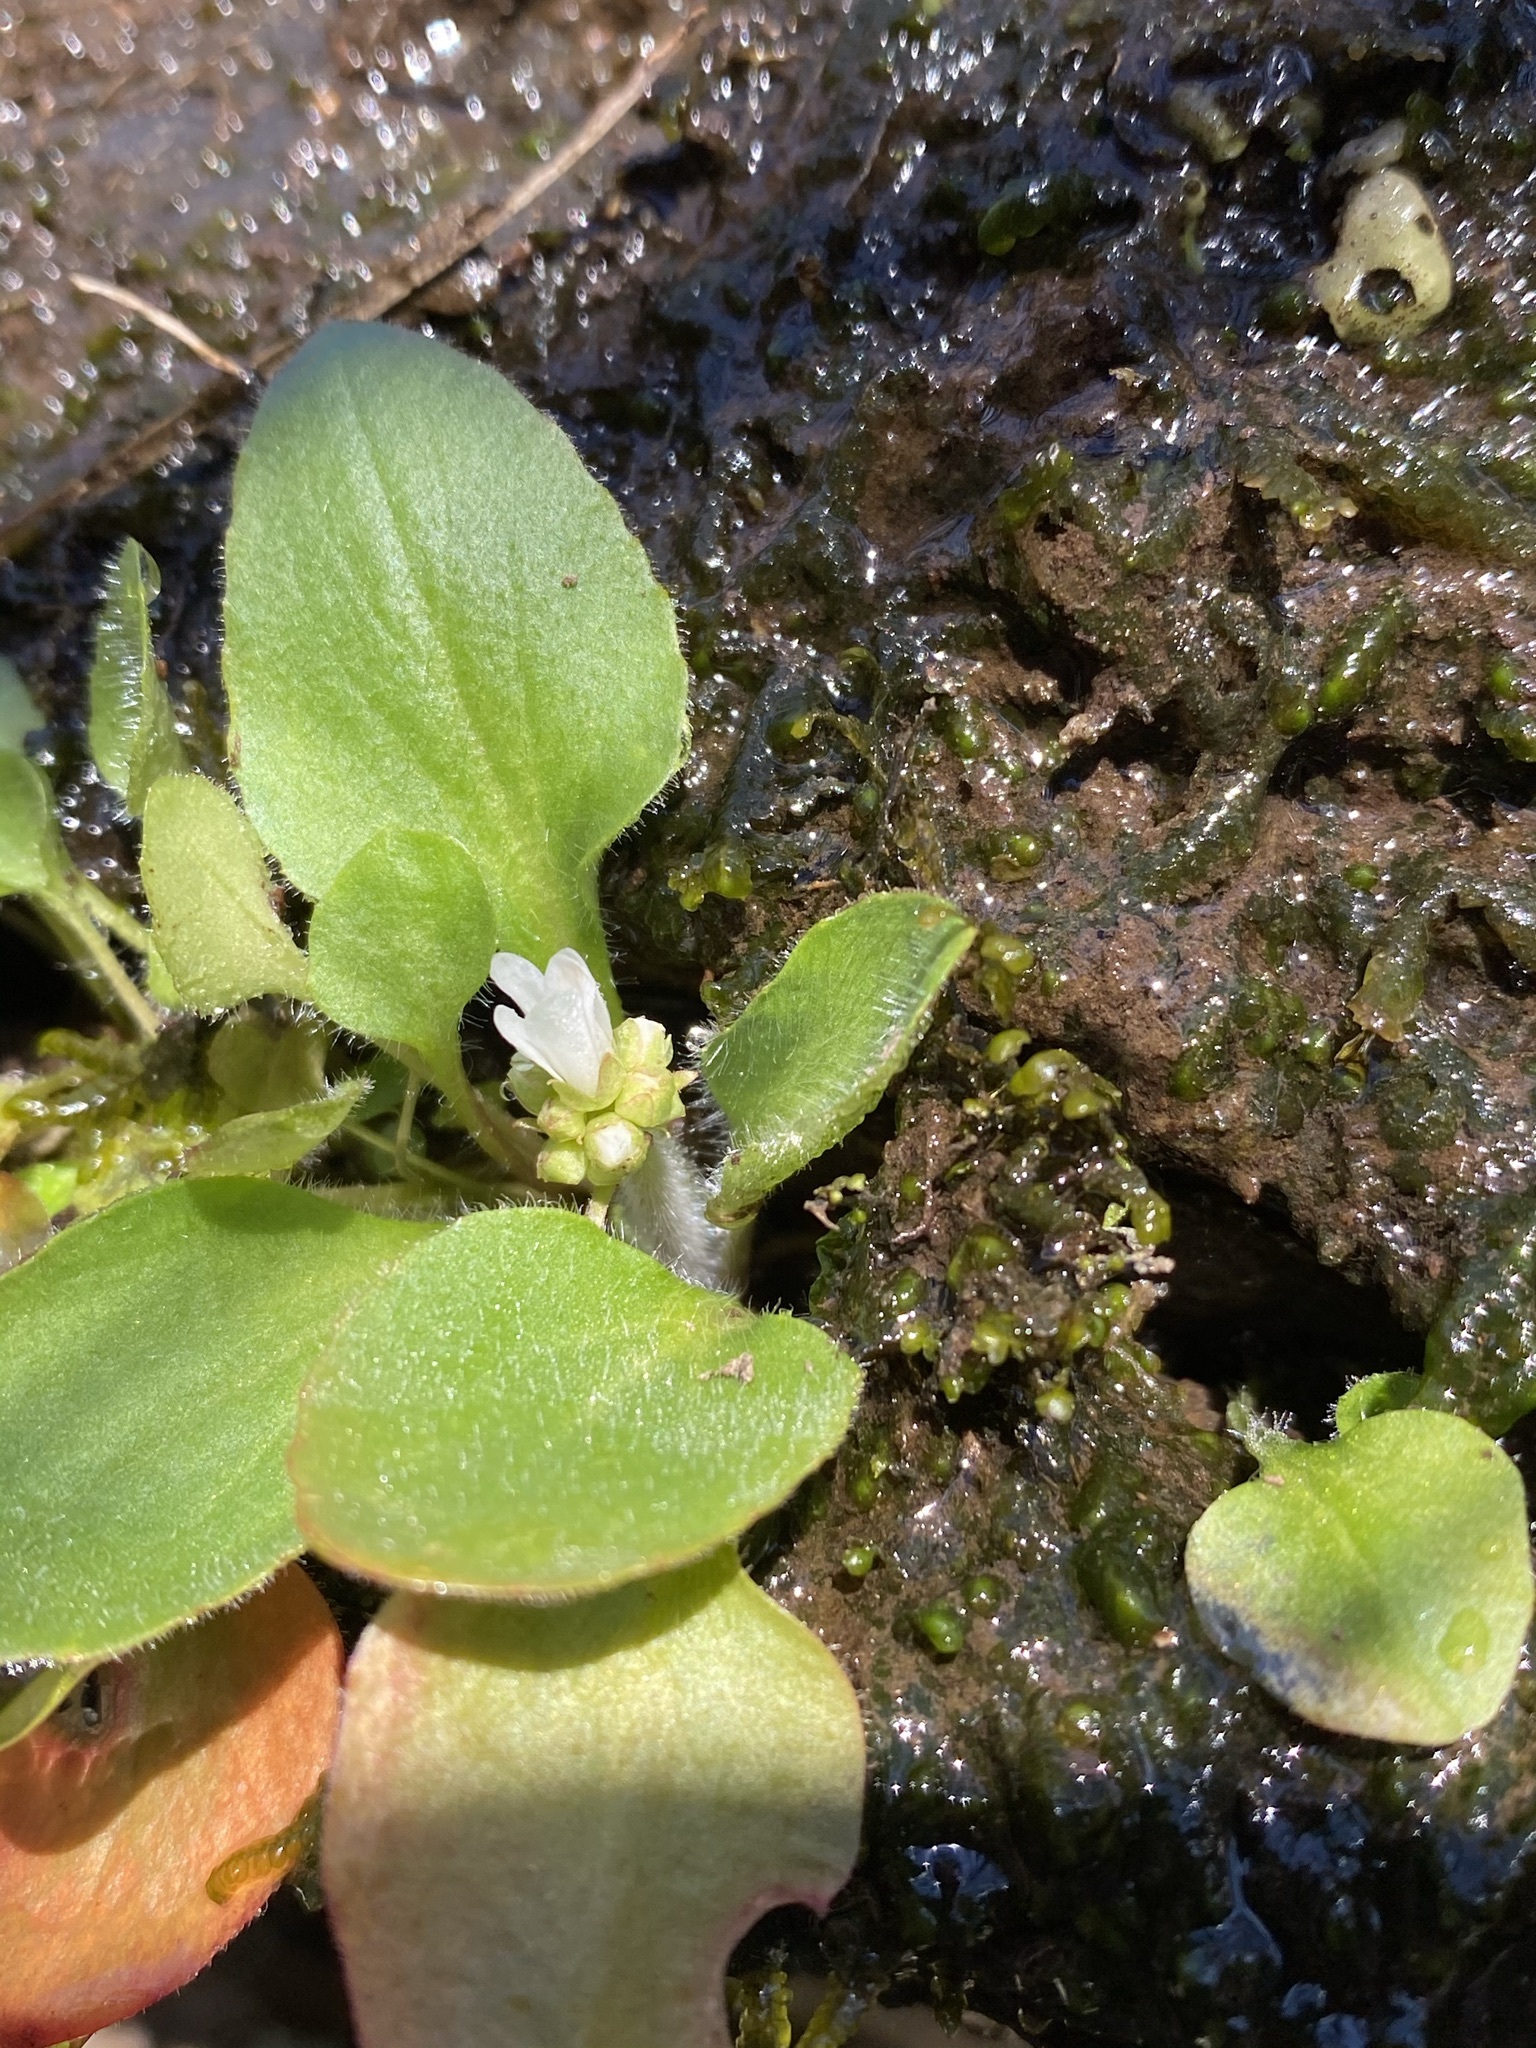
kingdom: Plantae
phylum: Tracheophyta
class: Magnoliopsida
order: Saxifragales
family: Saxifragaceae
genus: Micranthes
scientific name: Micranthes palmeri
